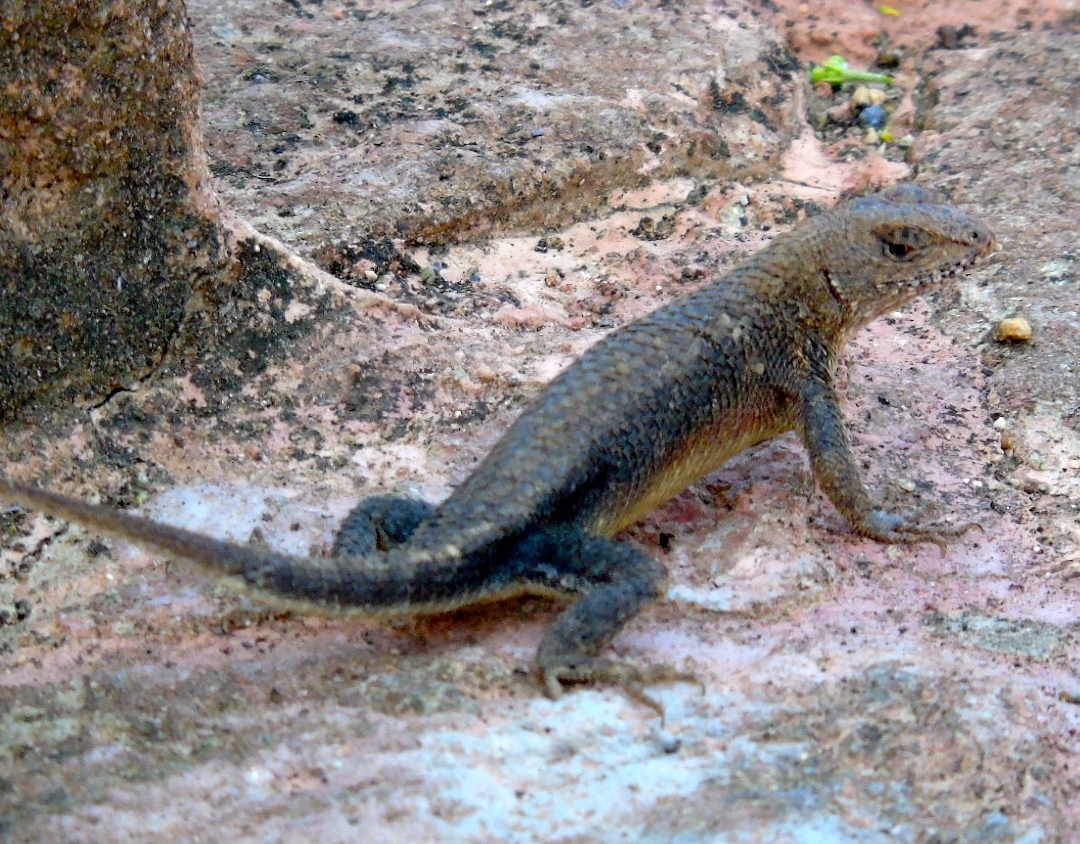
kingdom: Animalia
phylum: Chordata
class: Squamata
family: Phrynosomatidae
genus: Sceloporus
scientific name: Sceloporus nelsoni
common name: Nelson's spiny lizard
